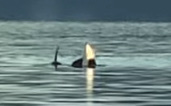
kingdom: Animalia
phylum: Chordata
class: Mammalia
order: Cetacea
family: Delphinidae
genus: Orcinus
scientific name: Orcinus orca
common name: Killer whale
